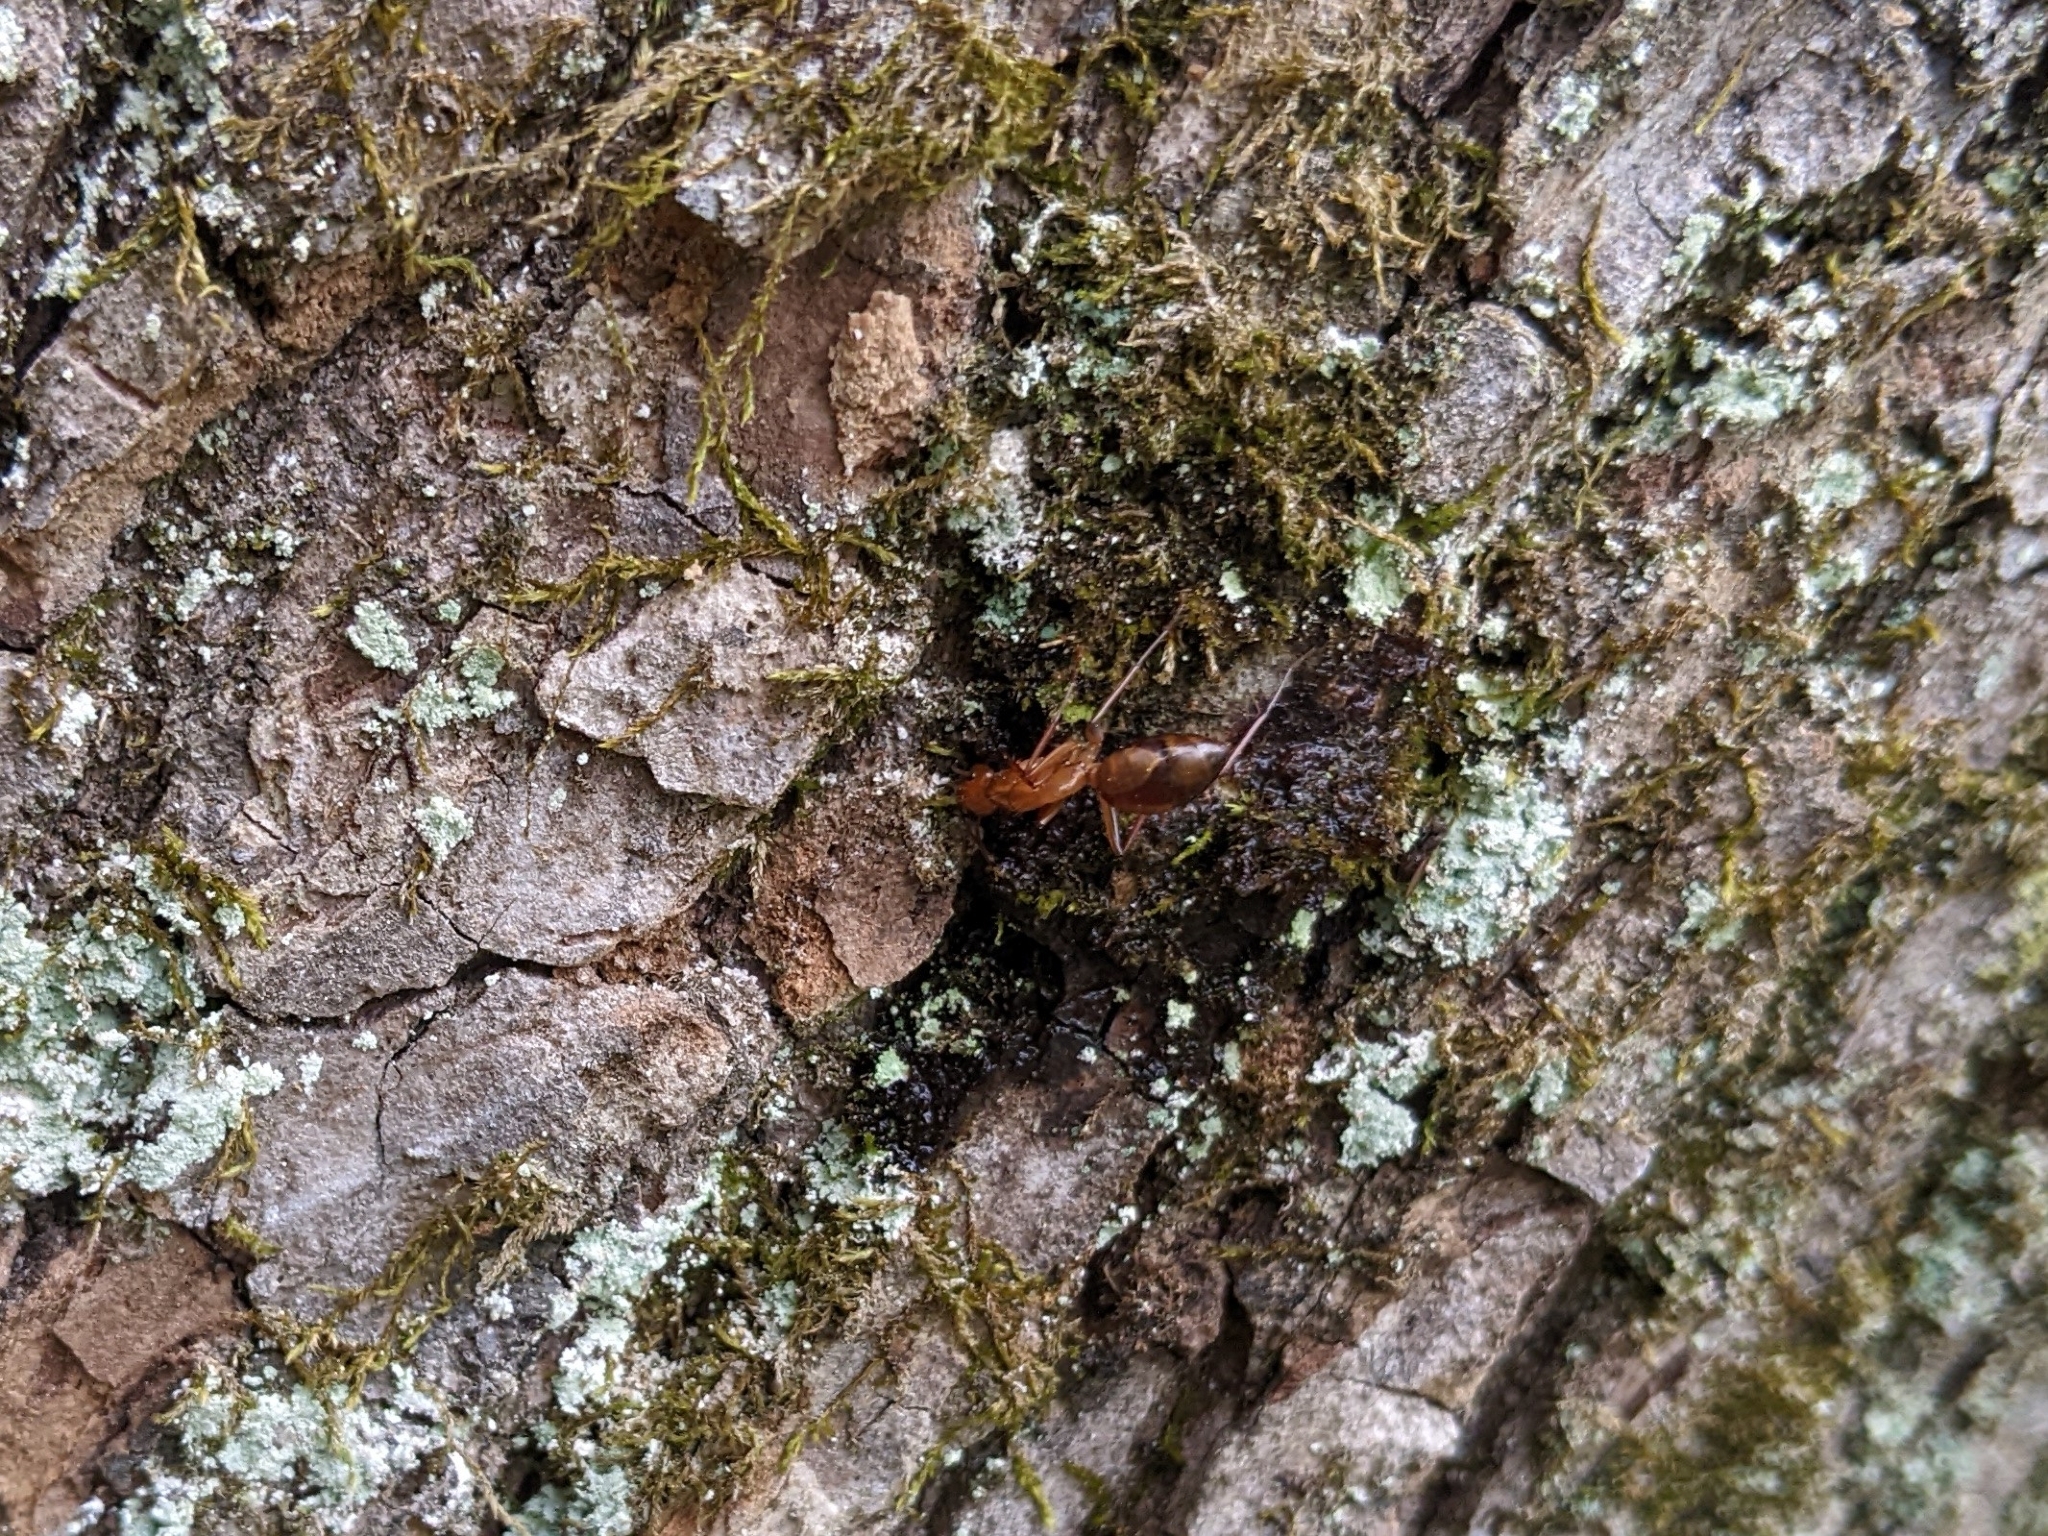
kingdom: Animalia
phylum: Arthropoda
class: Insecta
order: Hymenoptera
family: Formicidae
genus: Camponotus
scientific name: Camponotus castaneus
